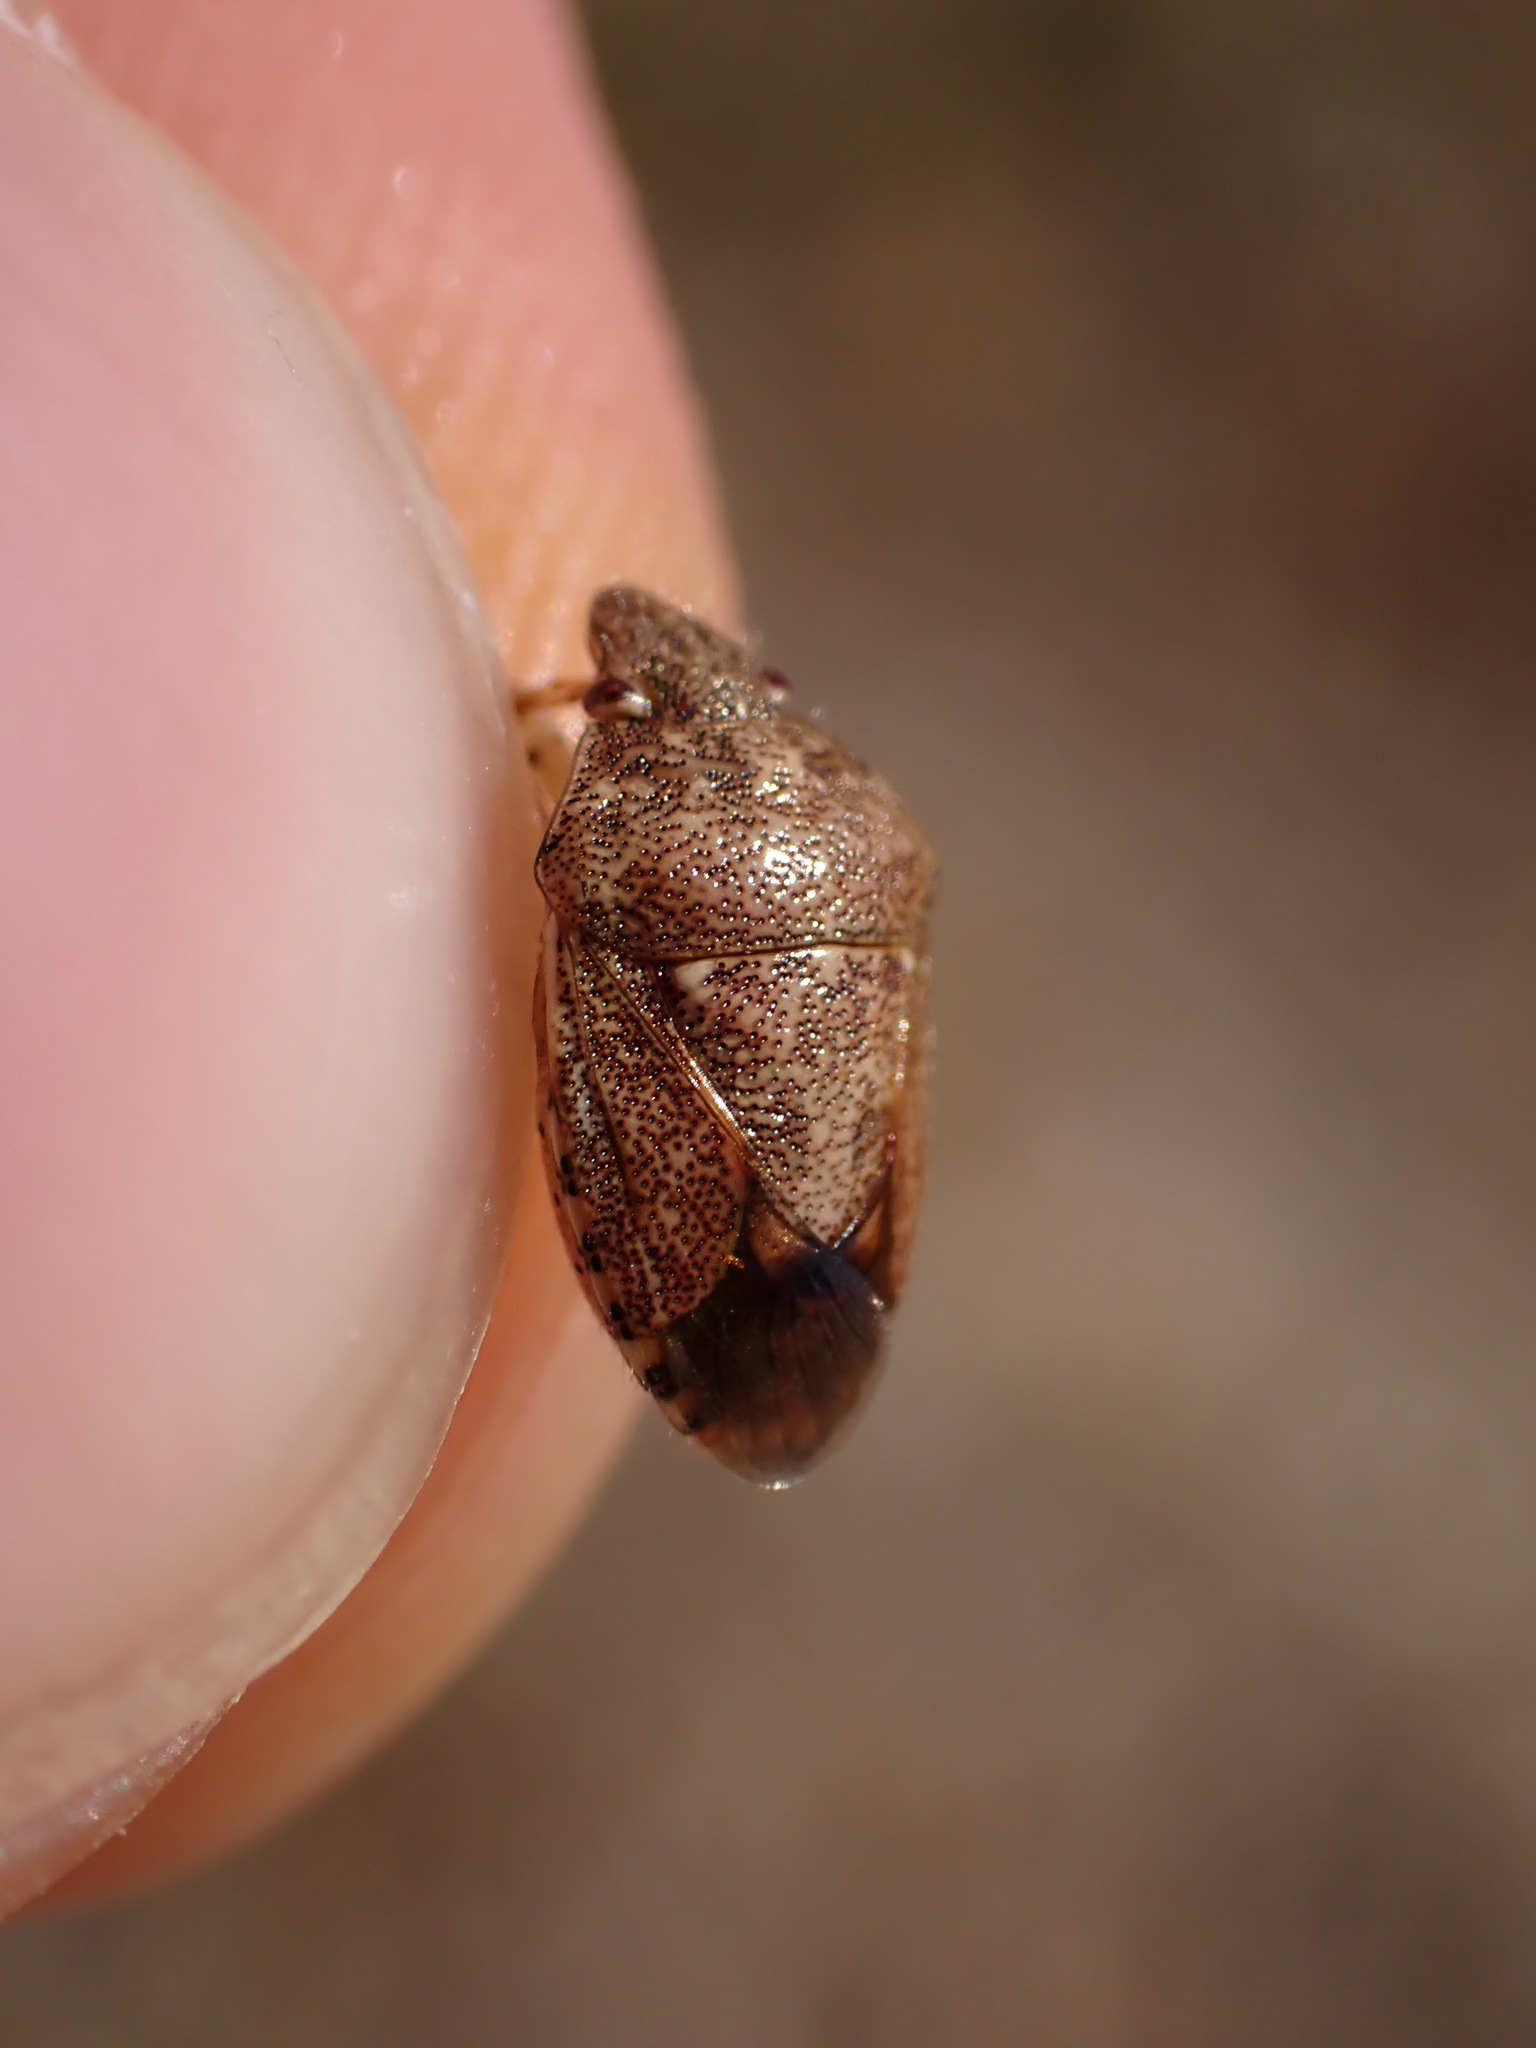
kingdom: Animalia
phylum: Arthropoda
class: Insecta
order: Hemiptera
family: Pentatomidae
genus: Staria
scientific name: Staria lunata
